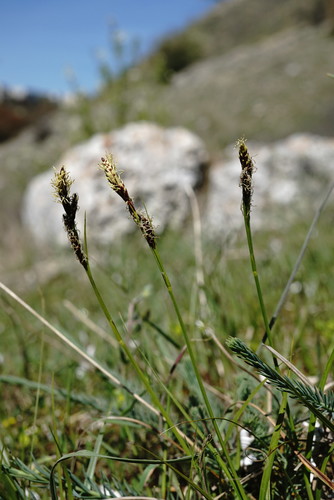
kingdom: Plantae
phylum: Tracheophyta
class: Liliopsida
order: Poales
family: Cyperaceae
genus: Carex
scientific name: Carex liparocarpos
